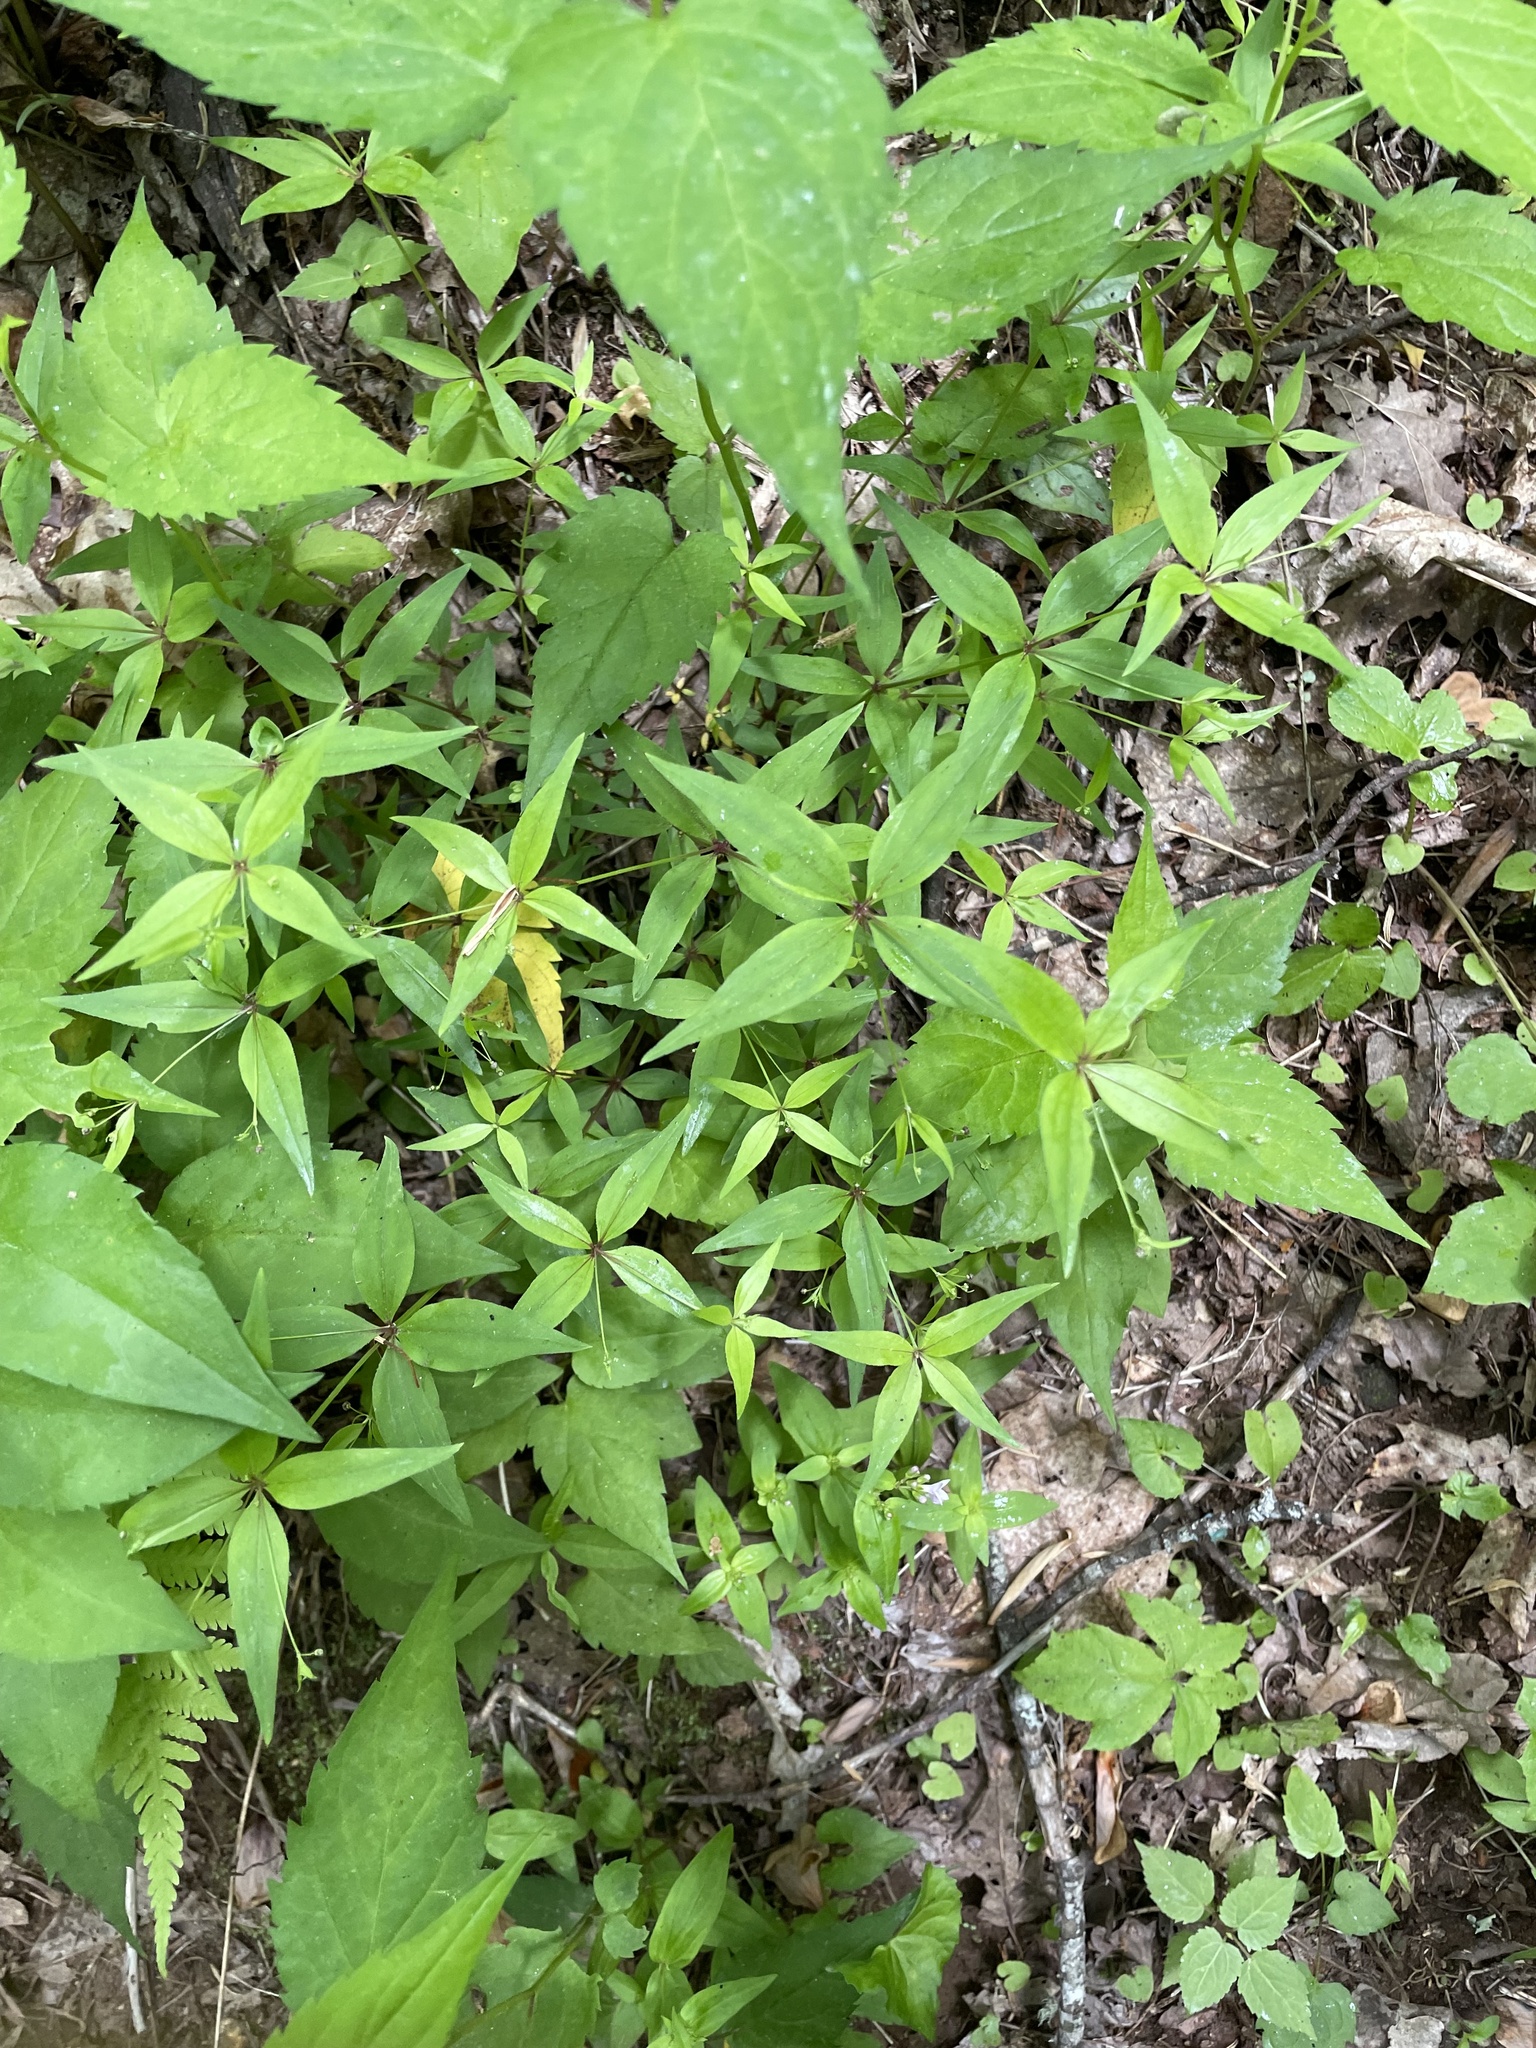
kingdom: Plantae
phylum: Tracheophyta
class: Magnoliopsida
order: Gentianales
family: Rubiaceae
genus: Galium
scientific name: Galium latifolium
